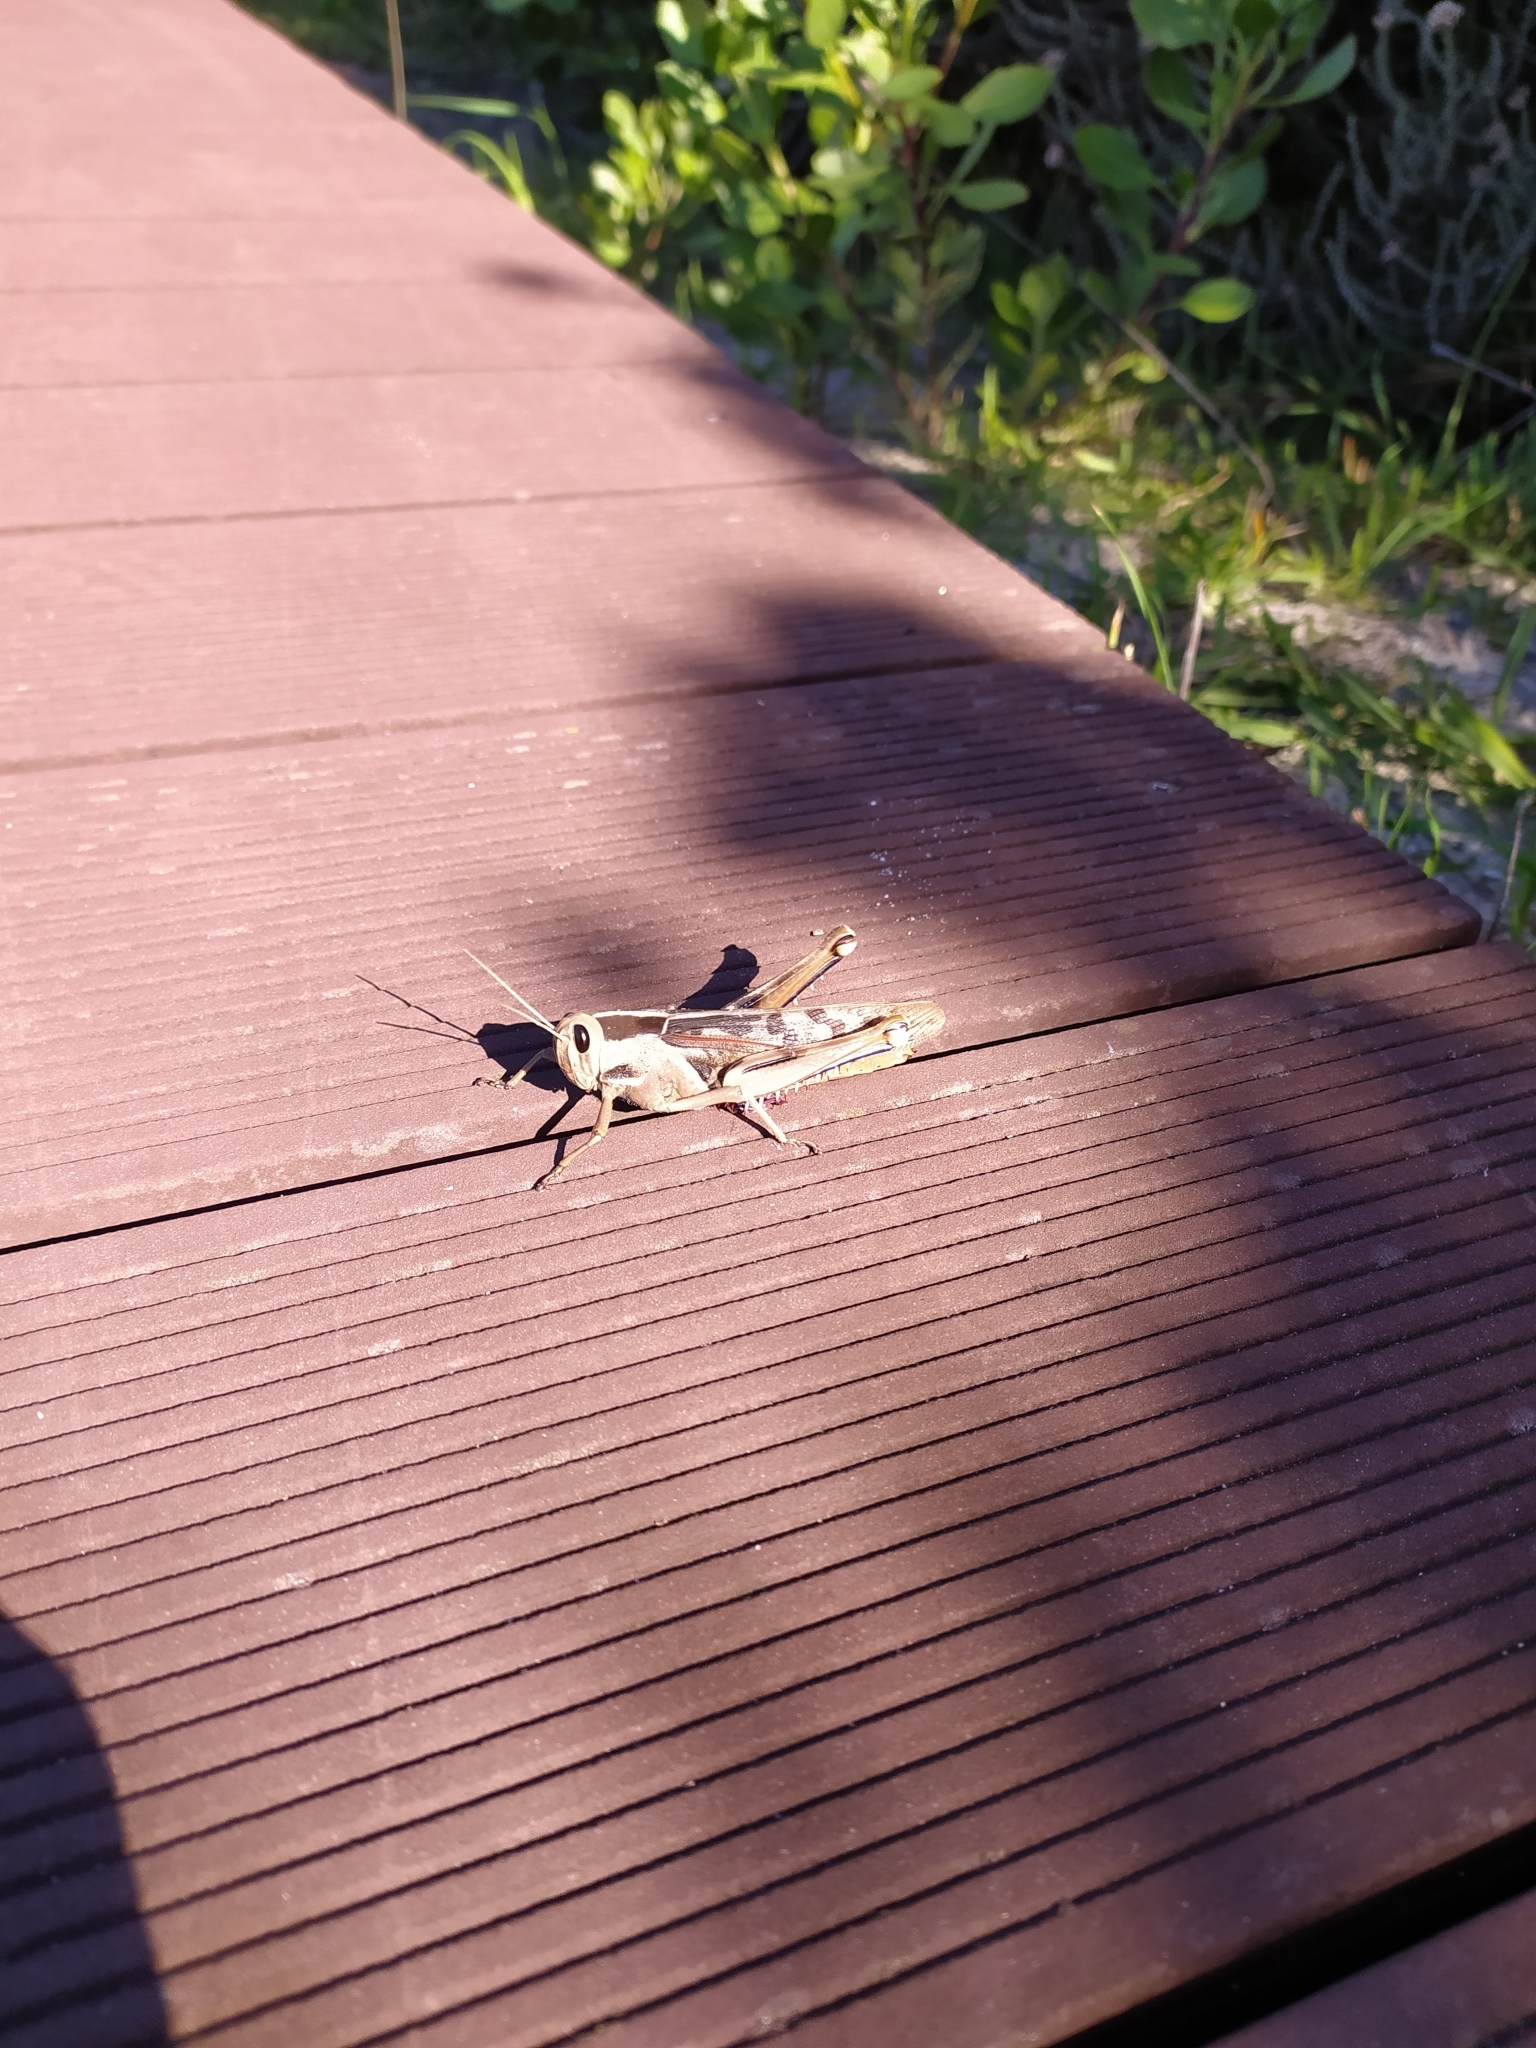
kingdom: Animalia
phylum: Arthropoda
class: Insecta
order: Orthoptera
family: Acrididae
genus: Acanthacris
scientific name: Acanthacris ruficornis
